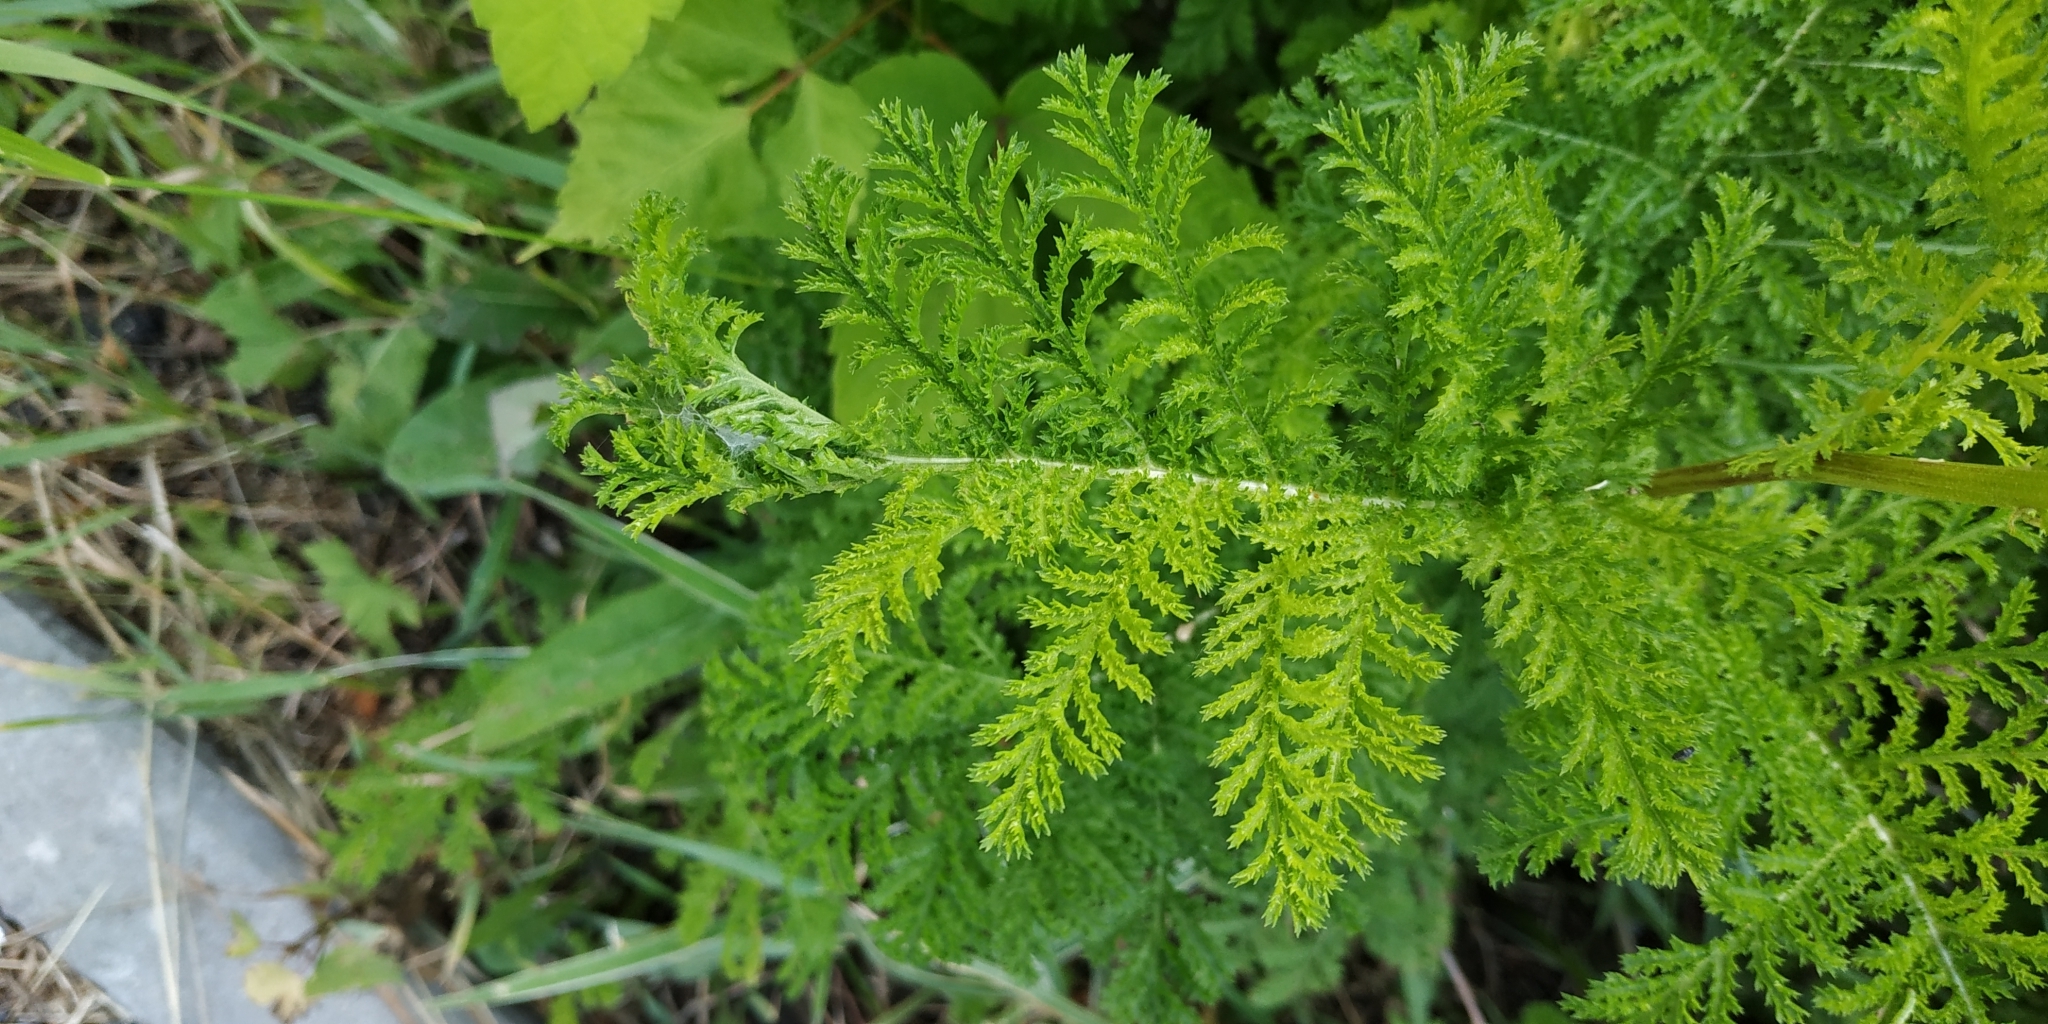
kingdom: Plantae
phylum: Tracheophyta
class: Magnoliopsida
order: Asterales
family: Asteraceae
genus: Tanacetum
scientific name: Tanacetum vulgare
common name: Common tansy
